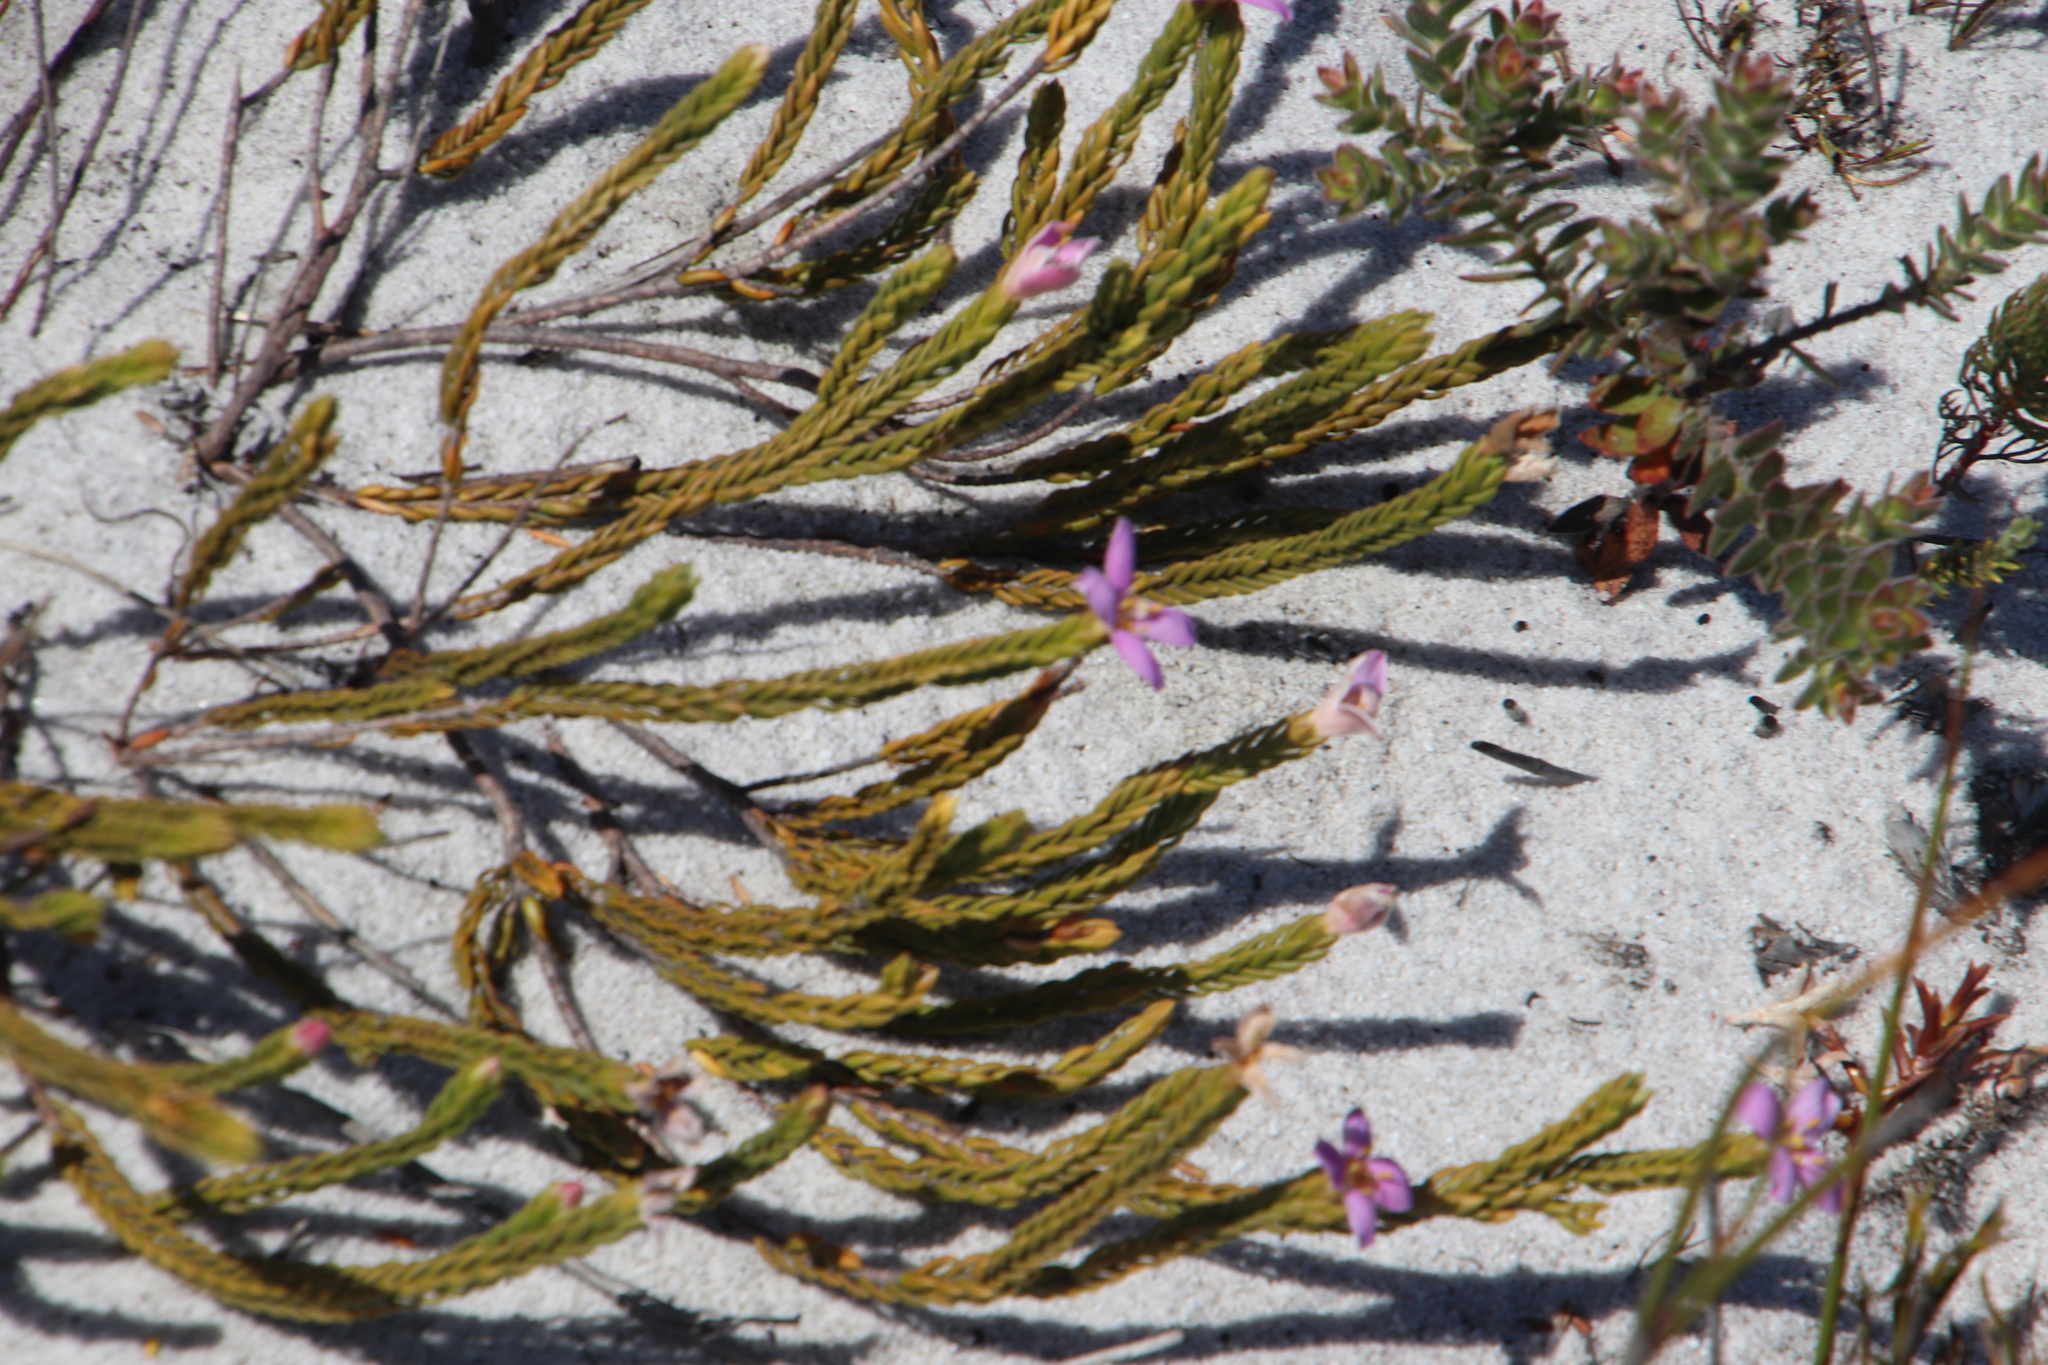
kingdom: Plantae
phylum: Tracheophyta
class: Magnoliopsida
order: Malvales
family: Thymelaeaceae
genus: Lachnaea
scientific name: Lachnaea grandiflora
